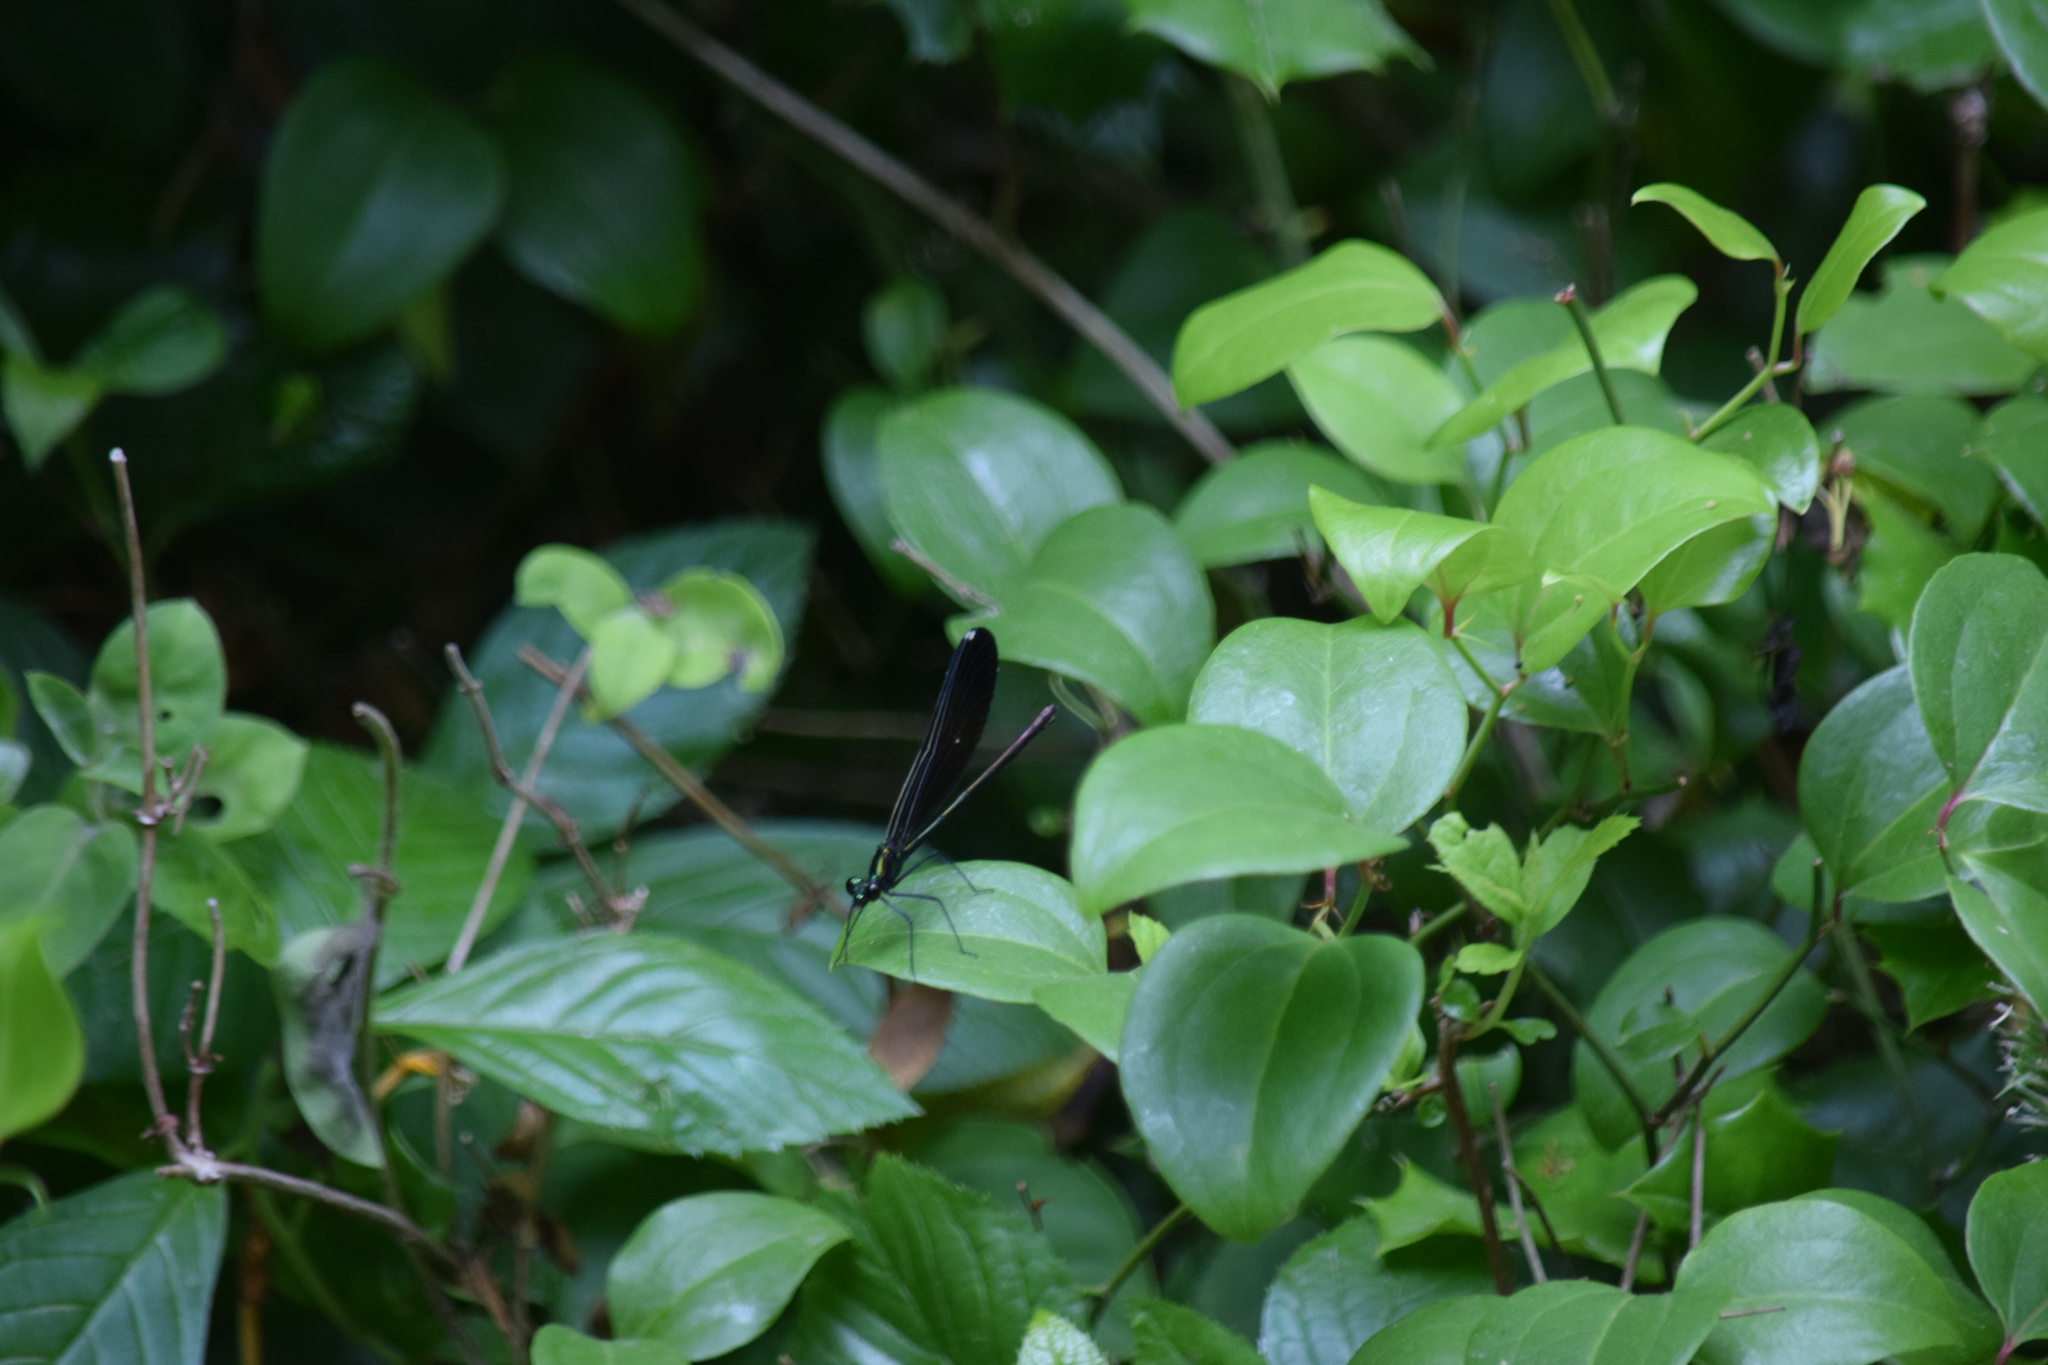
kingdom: Animalia
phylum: Arthropoda
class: Insecta
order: Odonata
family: Calopterygidae
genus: Calopteryx
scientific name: Calopteryx maculata
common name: Ebony jewelwing
